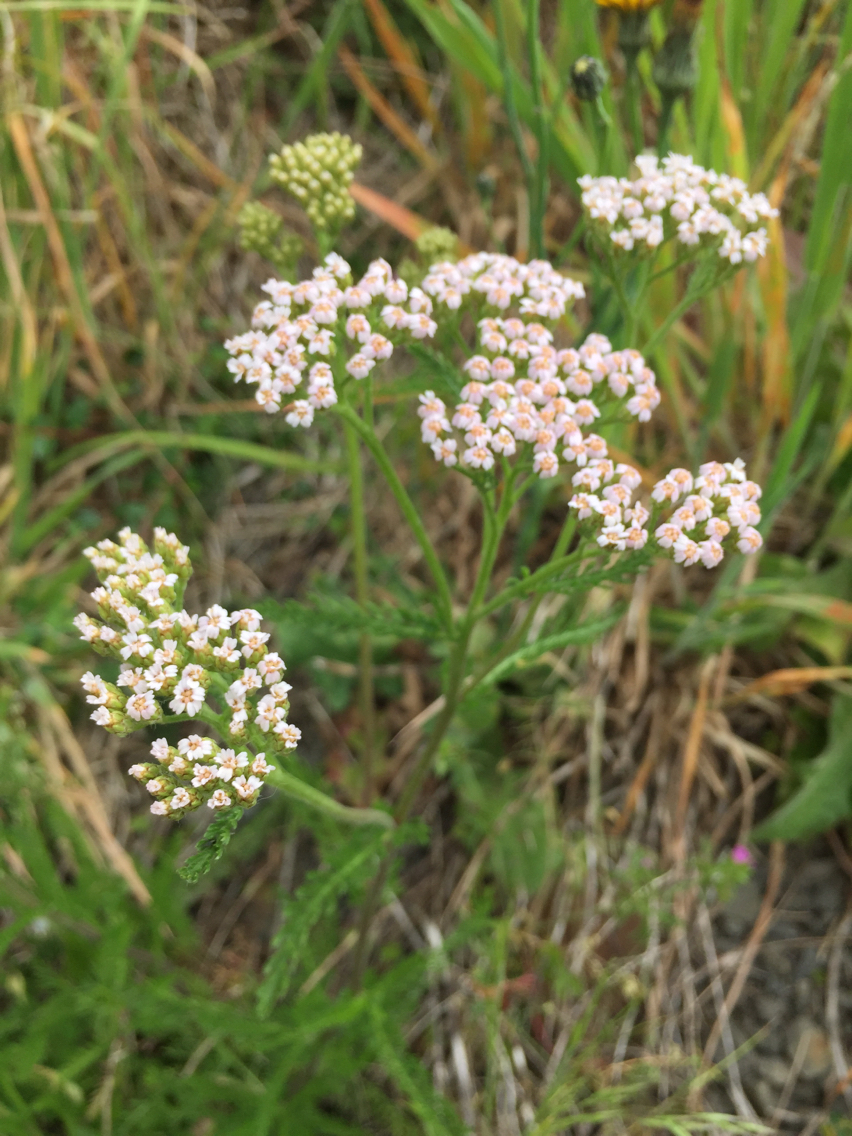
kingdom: Plantae
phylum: Tracheophyta
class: Magnoliopsida
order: Asterales
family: Asteraceae
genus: Achillea
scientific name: Achillea millefolium
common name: Yarrow
